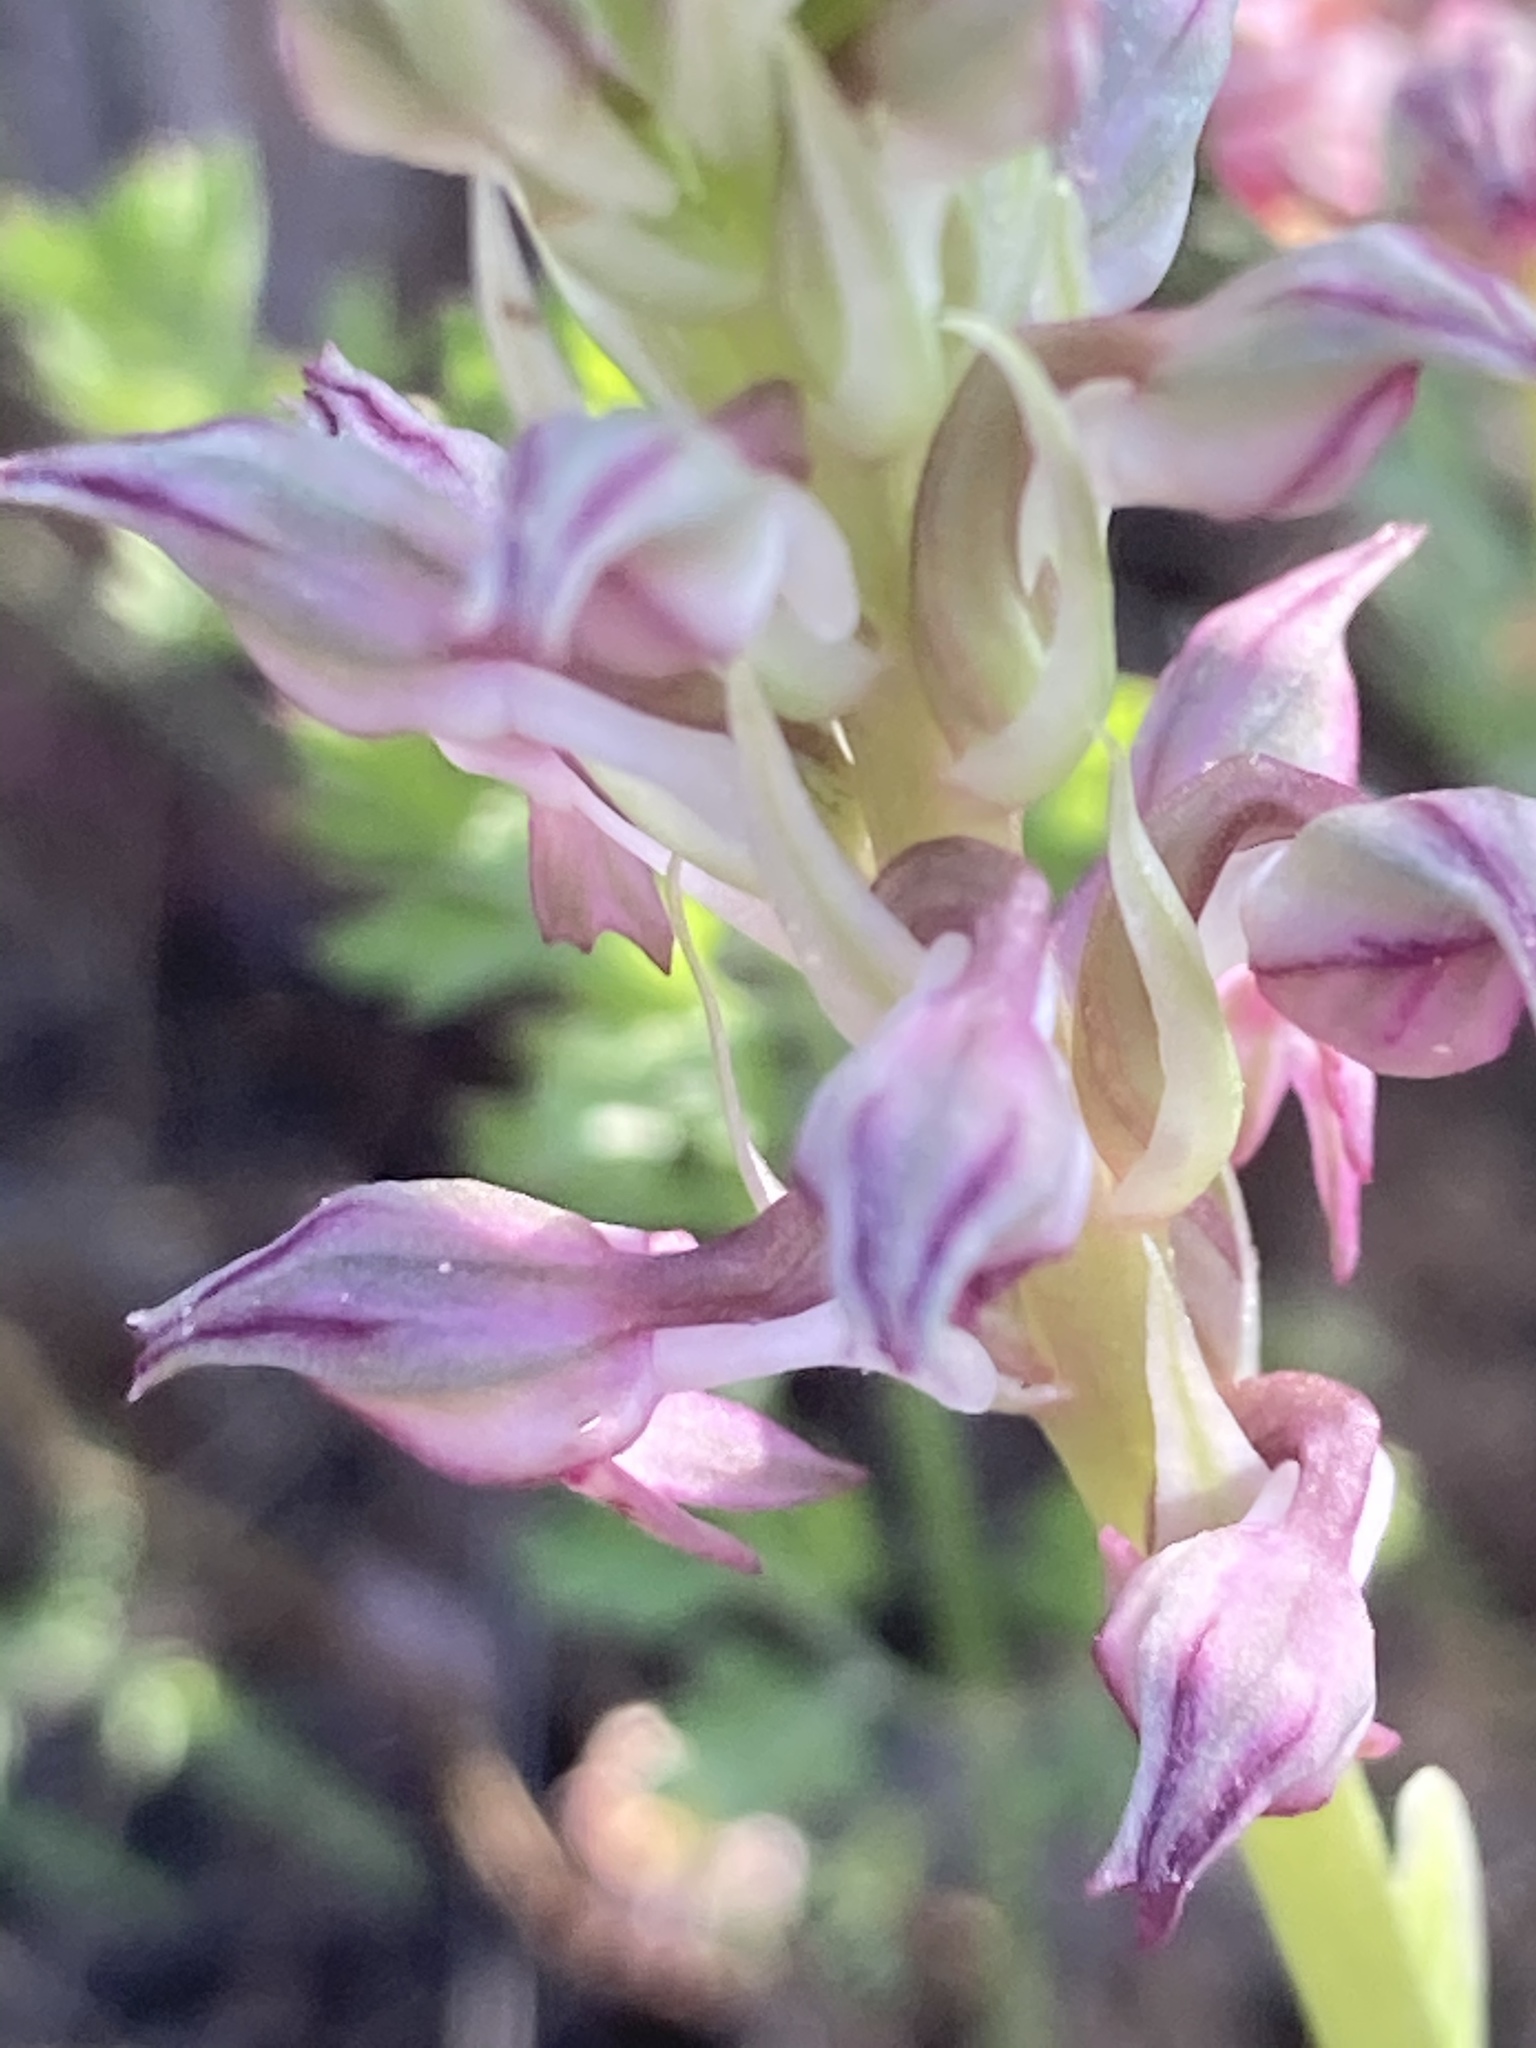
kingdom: Plantae
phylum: Tracheophyta
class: Liliopsida
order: Asparagales
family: Orchidaceae
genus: Anacamptis
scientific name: Anacamptis coriophora
